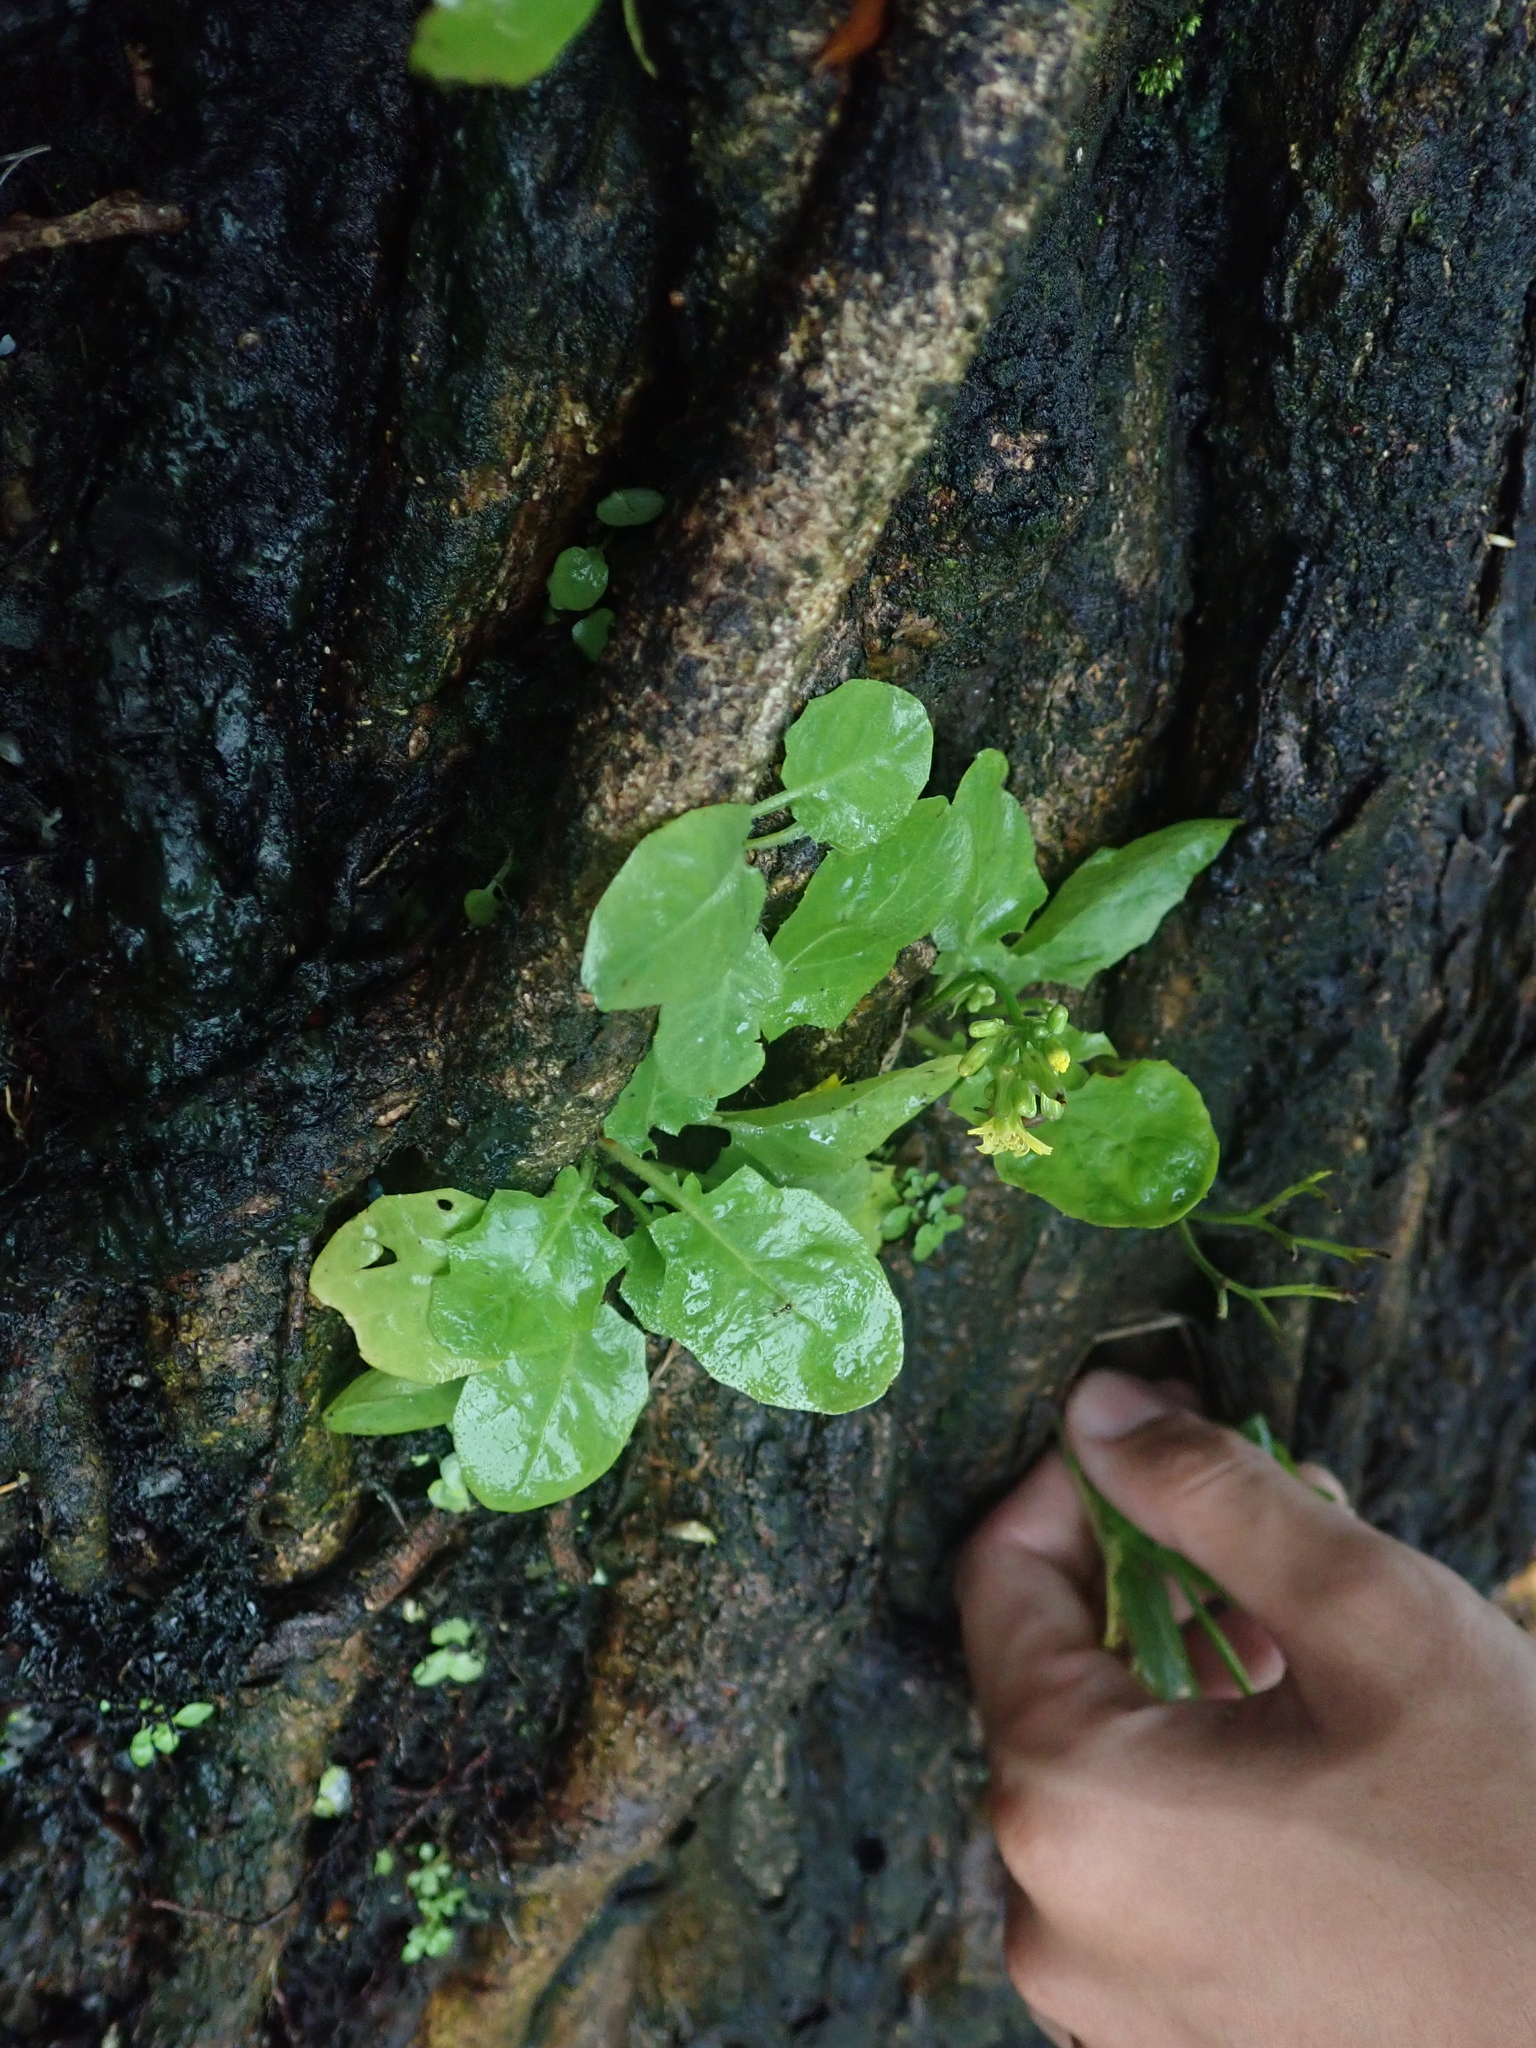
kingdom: Plantae
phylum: Tracheophyta
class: Magnoliopsida
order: Asterales
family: Asteraceae
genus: Youngia
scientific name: Youngia japonica
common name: Oriental false hawksbeard
